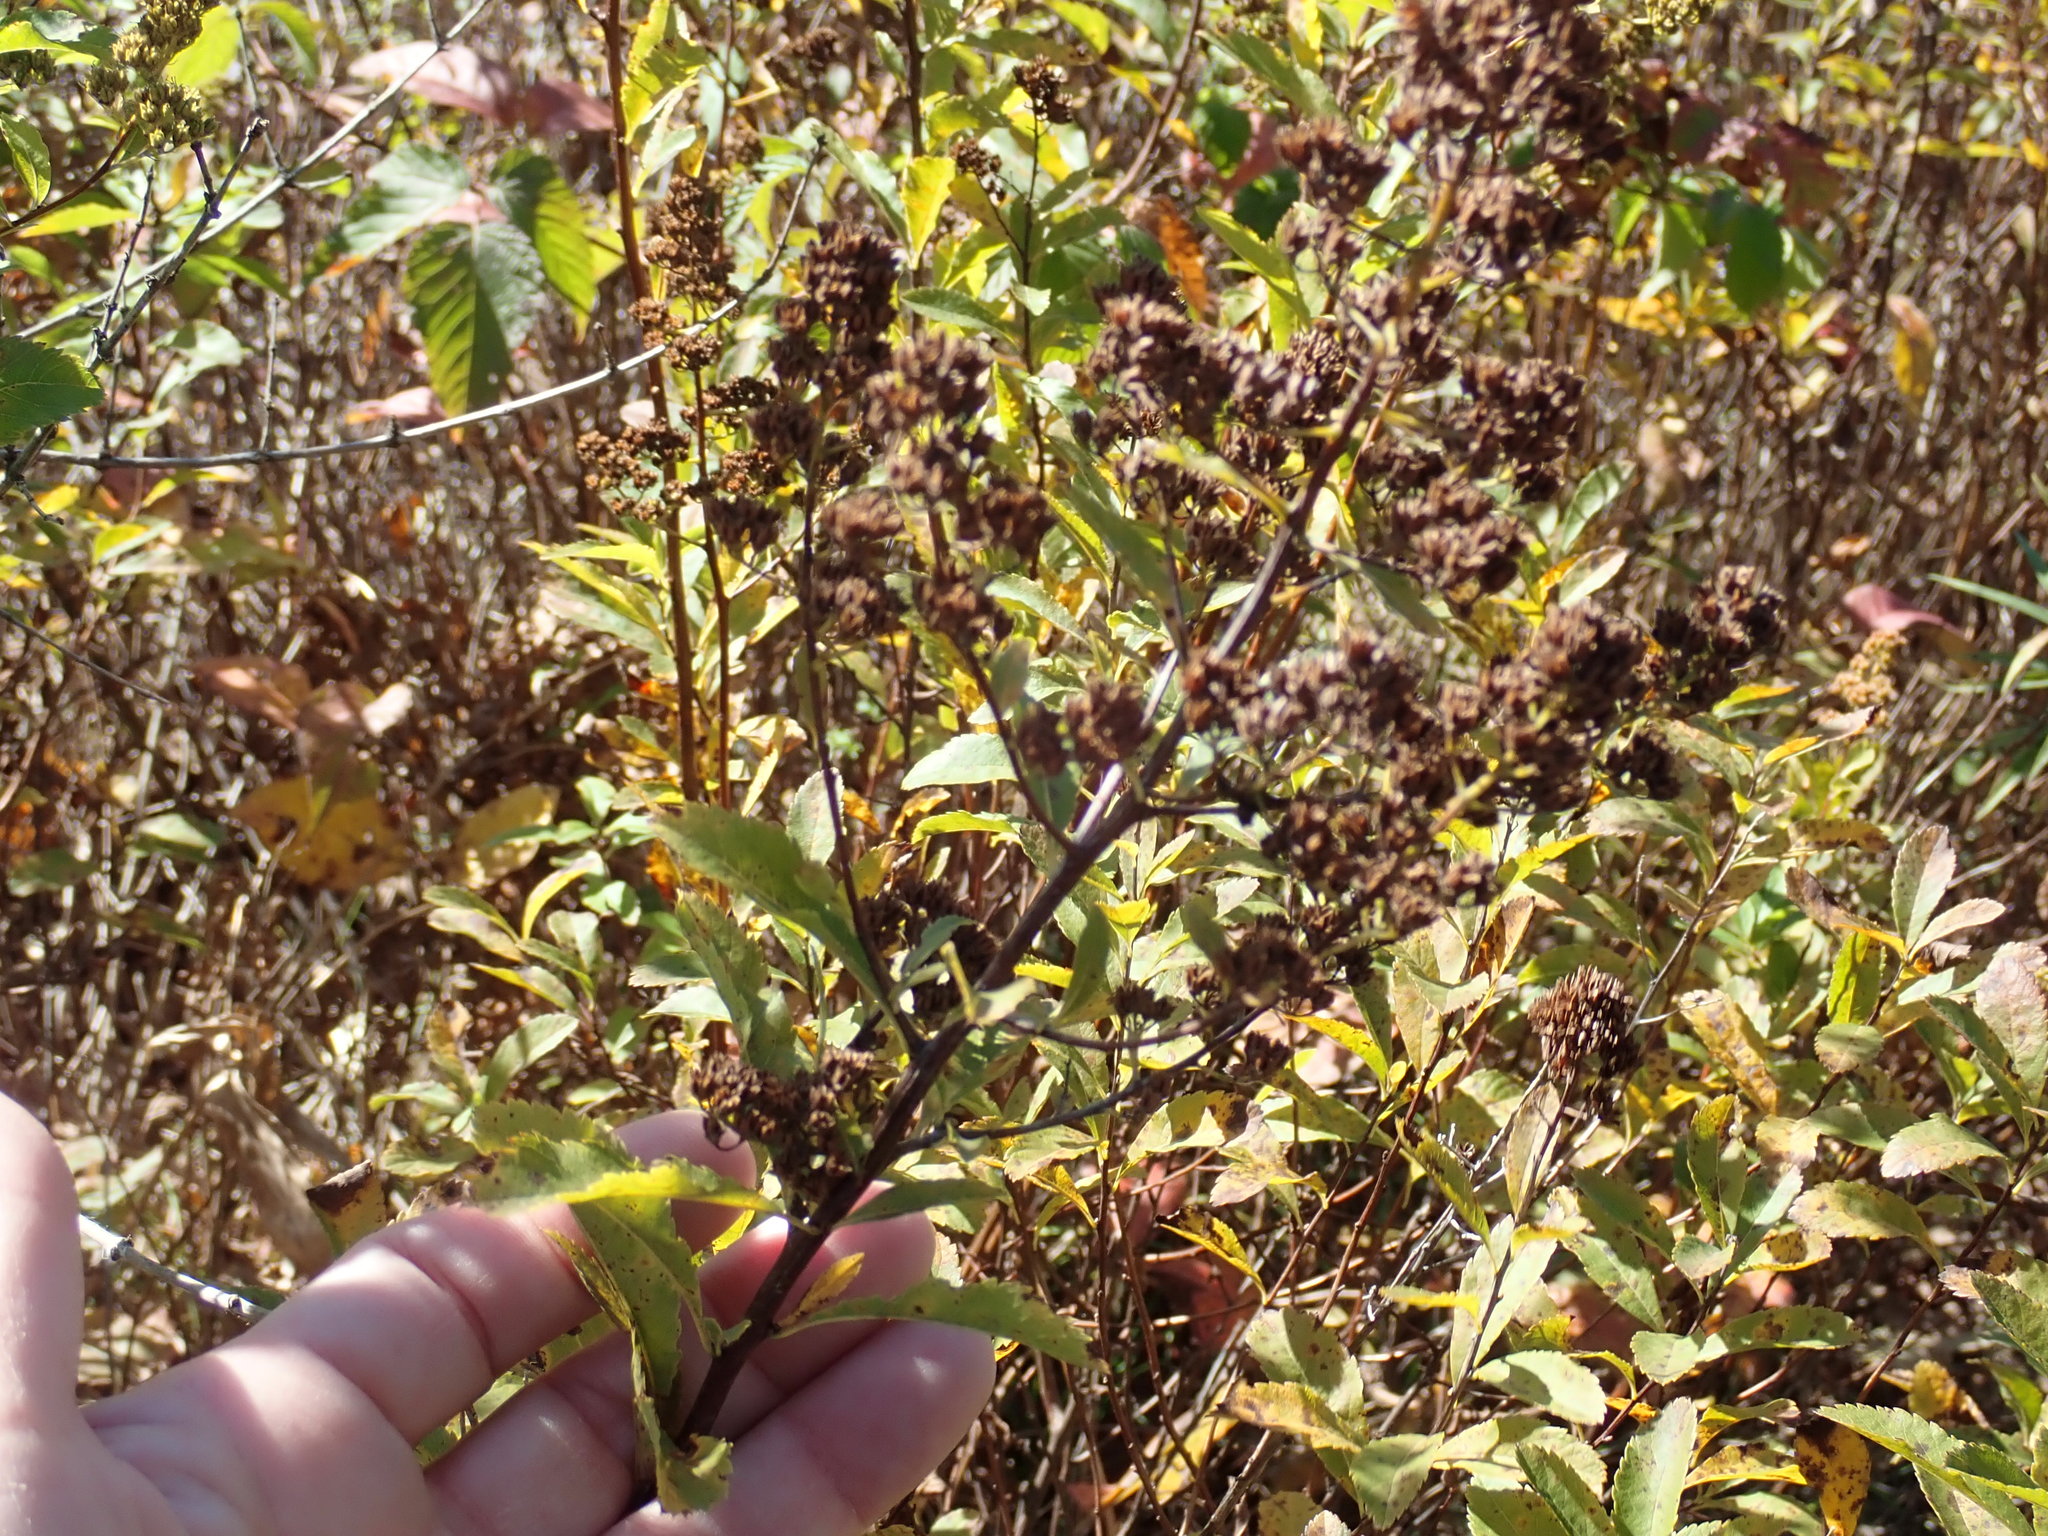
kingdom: Plantae
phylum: Tracheophyta
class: Magnoliopsida
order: Rosales
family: Rosaceae
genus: Spiraea
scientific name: Spiraea alba
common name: Pale bridewort
